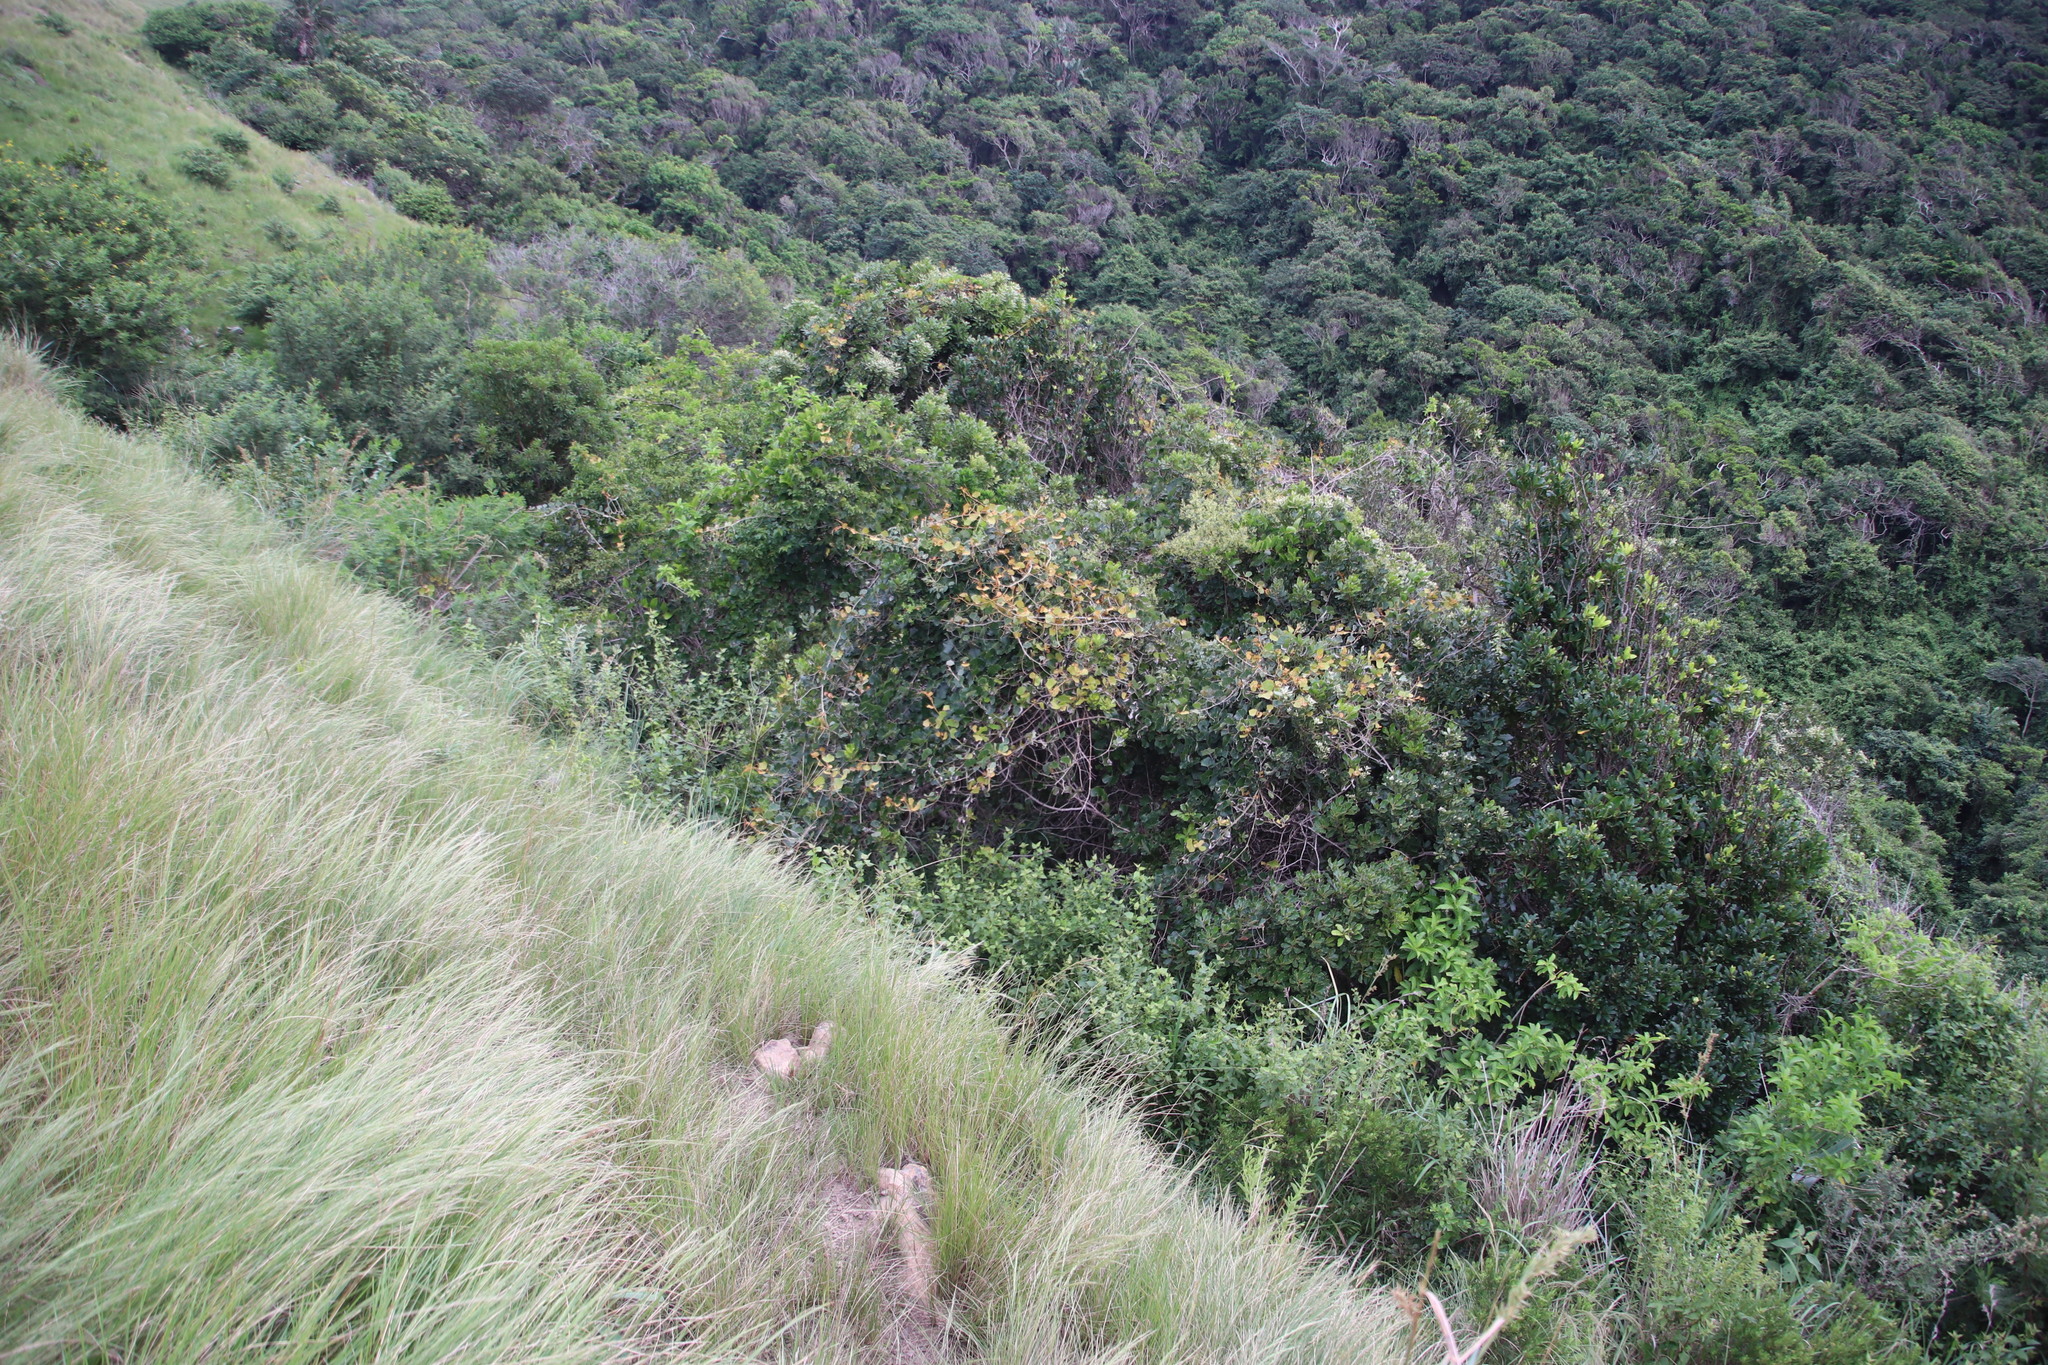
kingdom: Plantae
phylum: Tracheophyta
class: Magnoliopsida
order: Vitales
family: Vitaceae
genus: Rhoicissus
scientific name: Rhoicissus tomentosa
